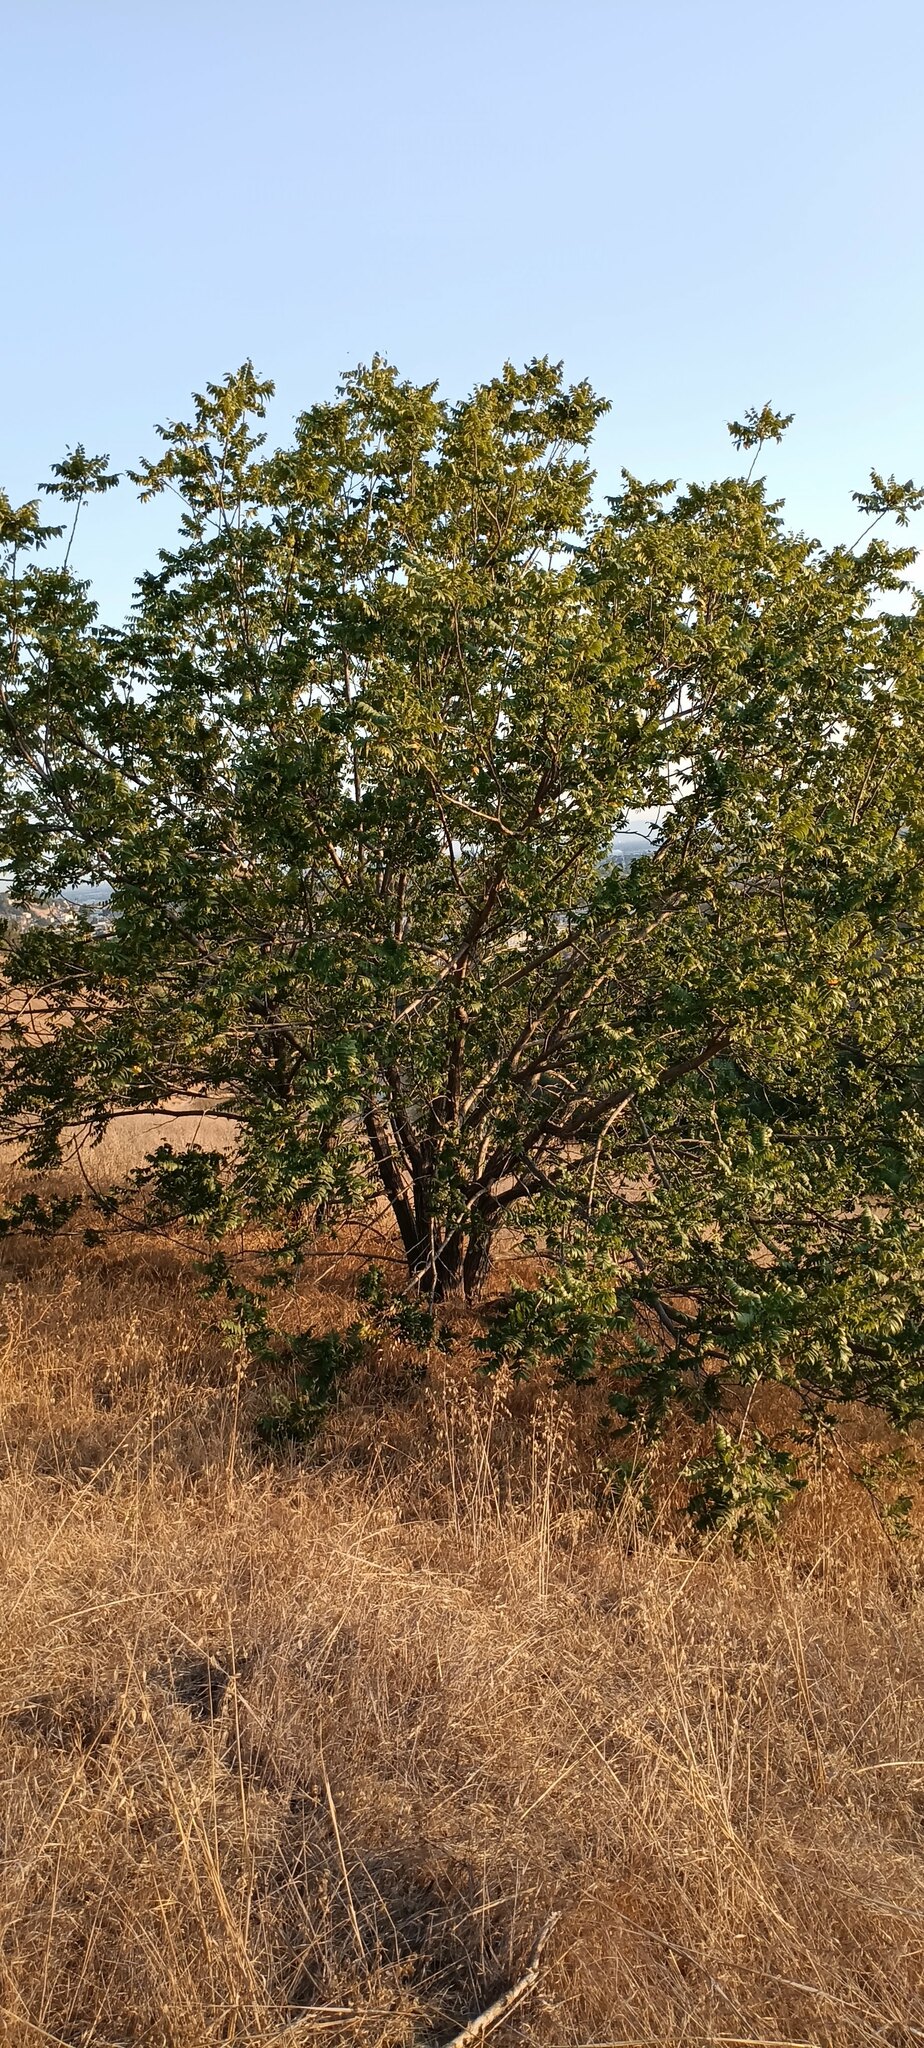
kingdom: Plantae
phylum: Tracheophyta
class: Magnoliopsida
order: Fagales
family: Juglandaceae
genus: Juglans
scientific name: Juglans californica
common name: Southern california black walnut
